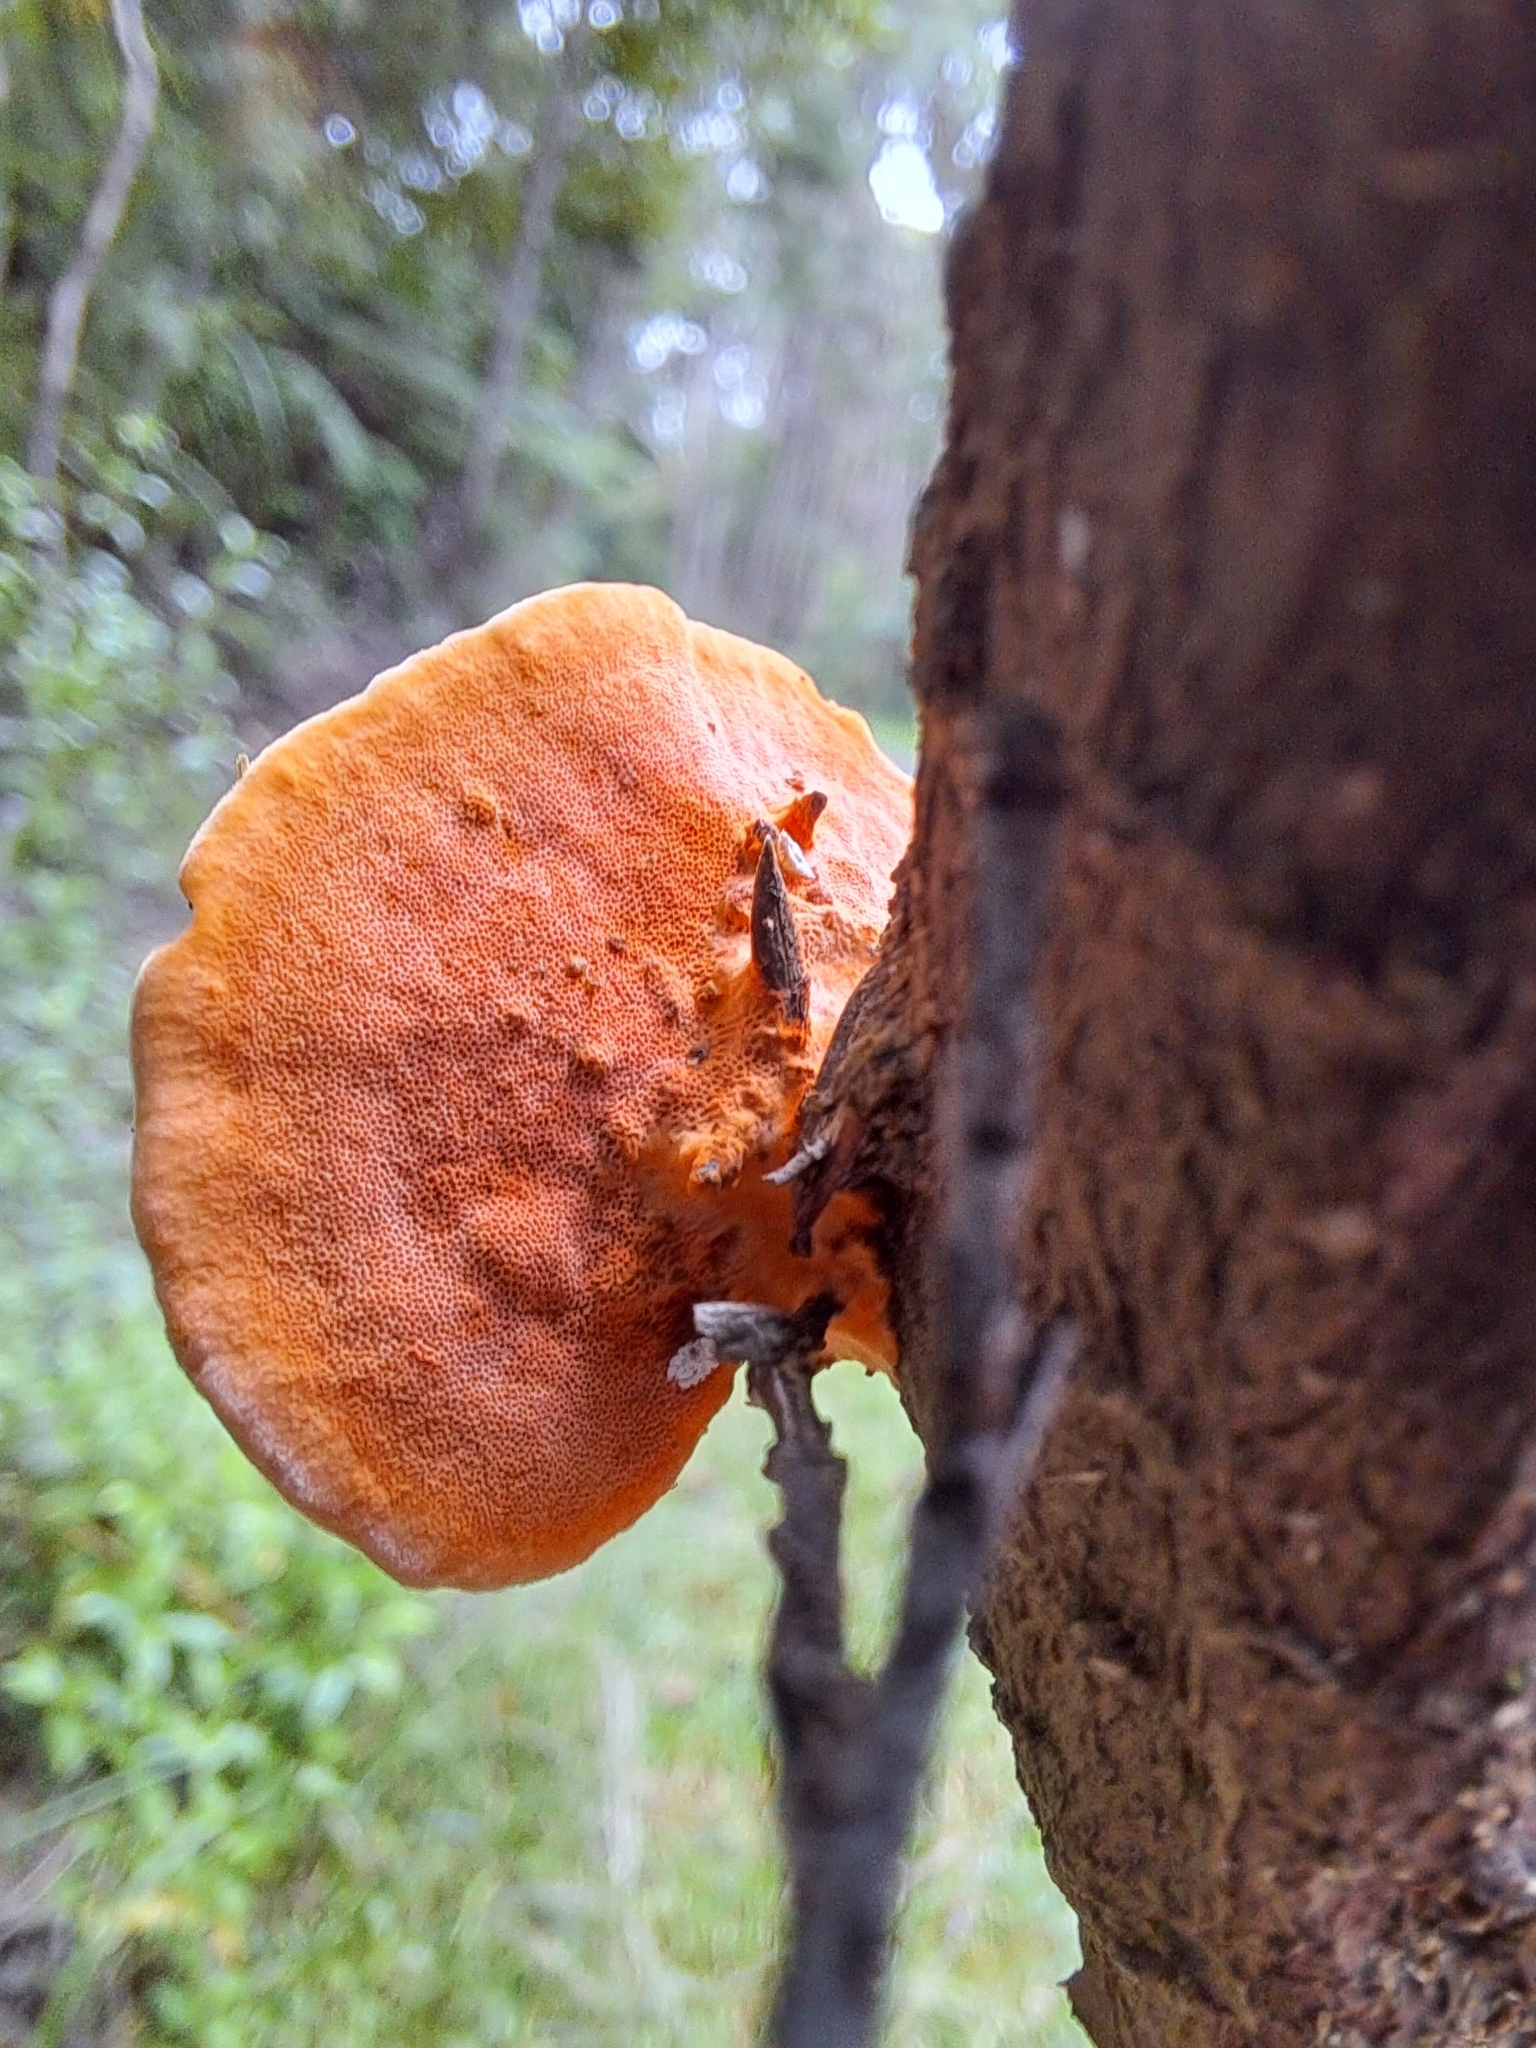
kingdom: Fungi
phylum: Basidiomycota
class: Agaricomycetes
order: Polyporales
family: Polyporaceae
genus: Trametes
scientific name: Trametes coccinea
